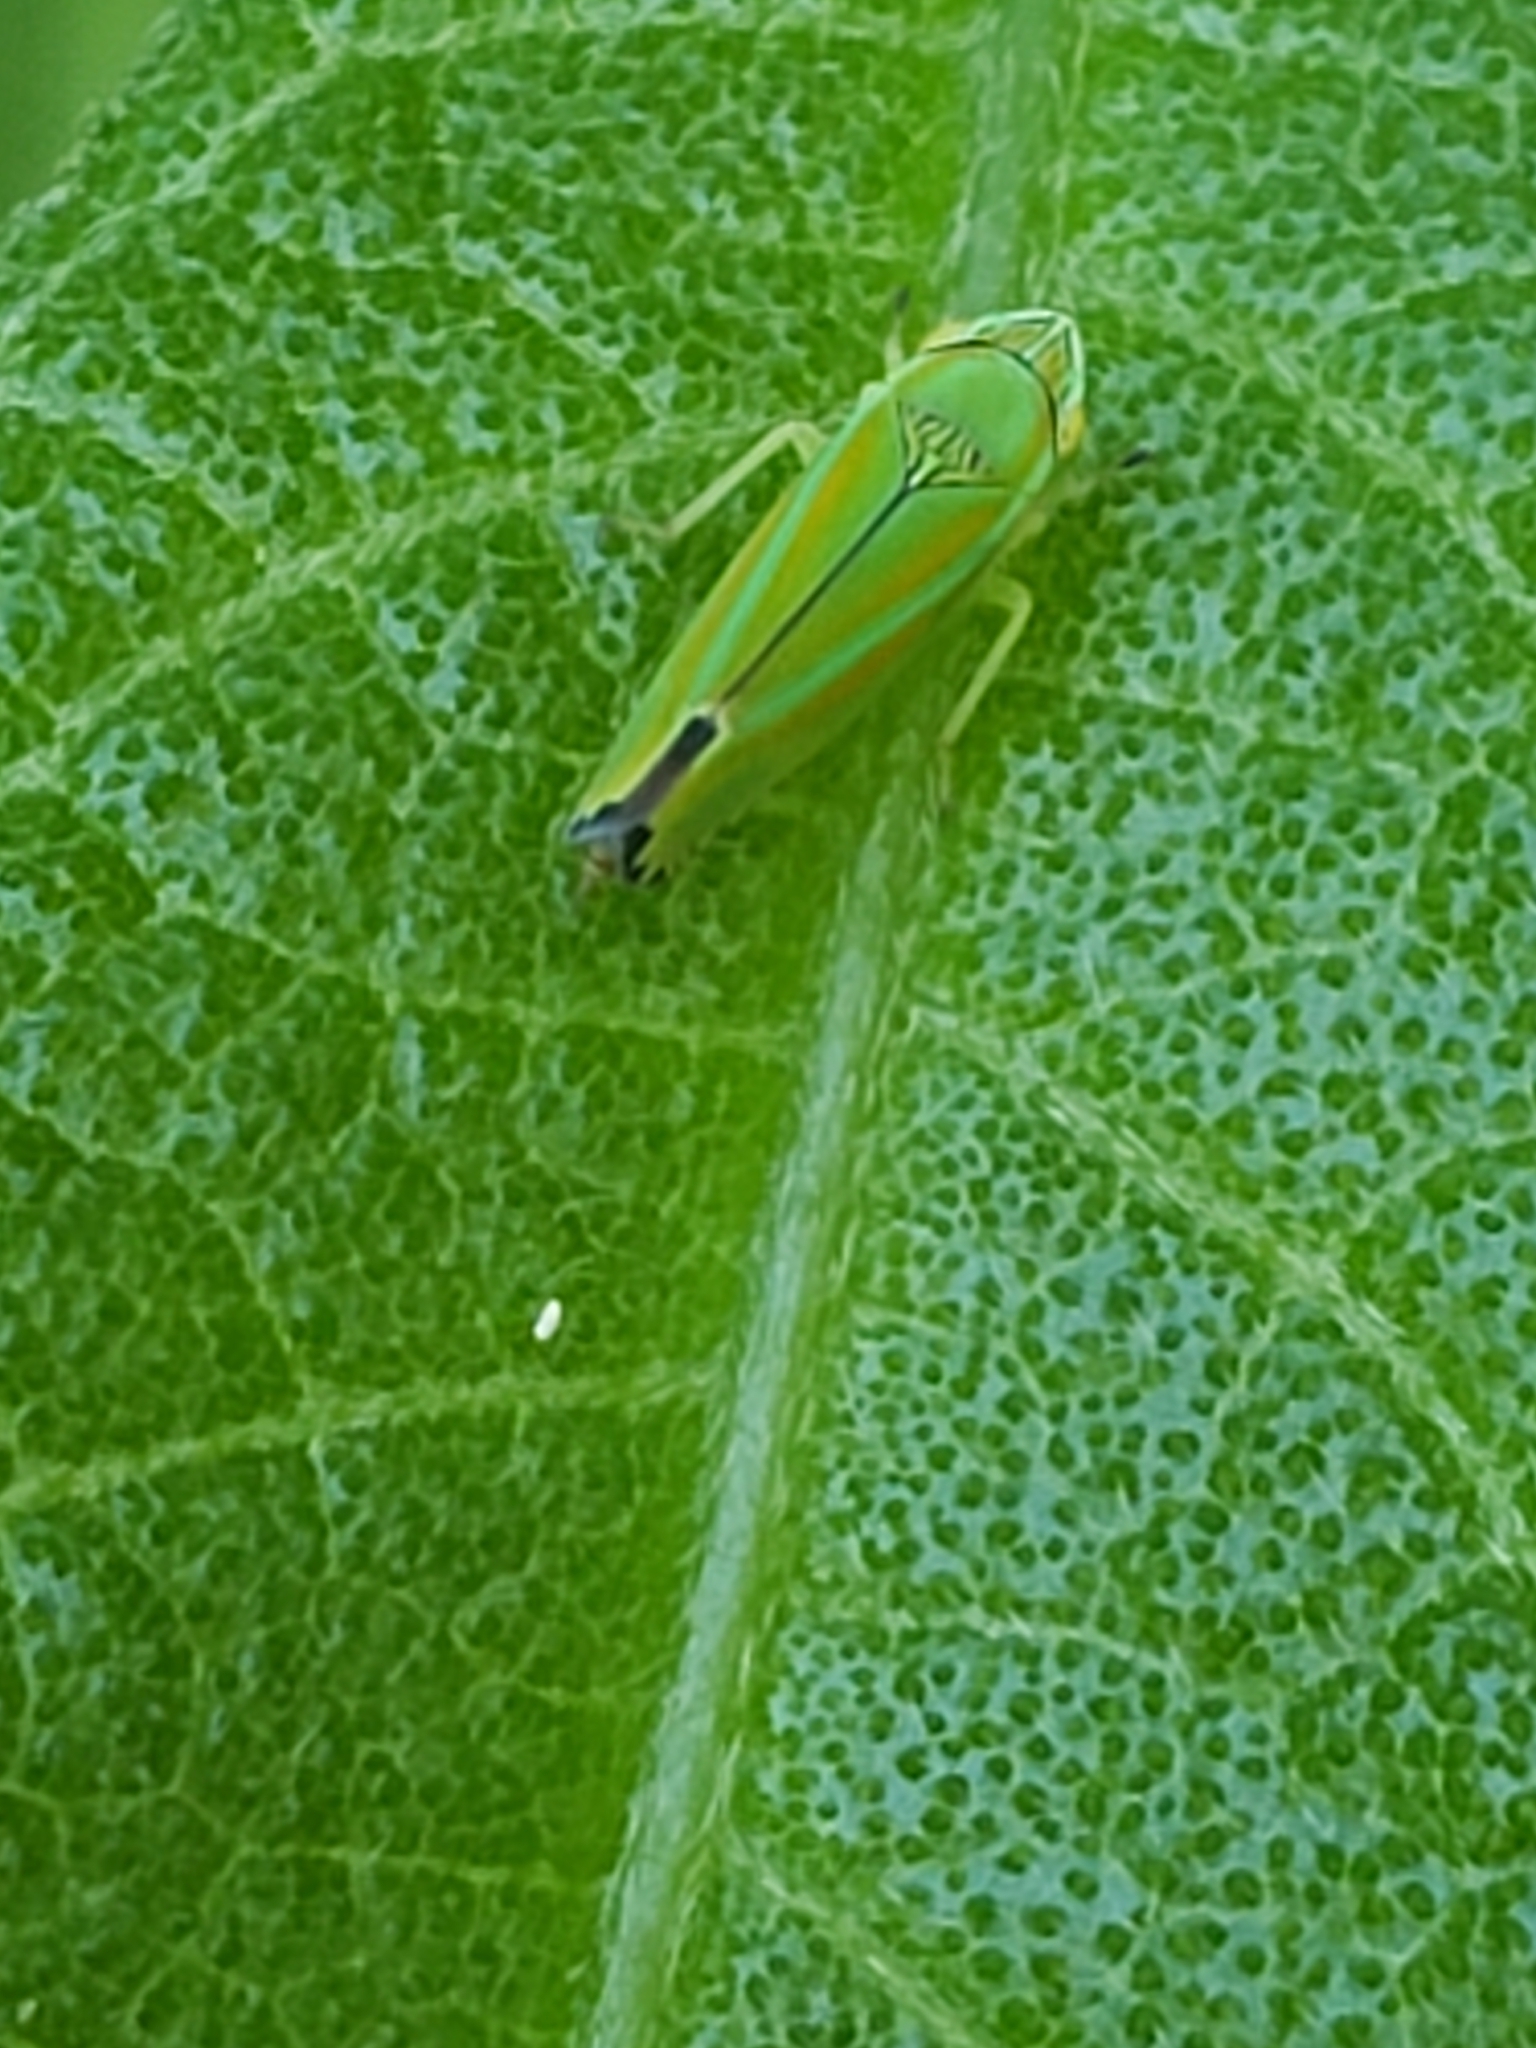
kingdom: Animalia
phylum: Arthropoda
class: Insecta
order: Hemiptera
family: Cicadellidae
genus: Graphocephala
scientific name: Graphocephala versuta
